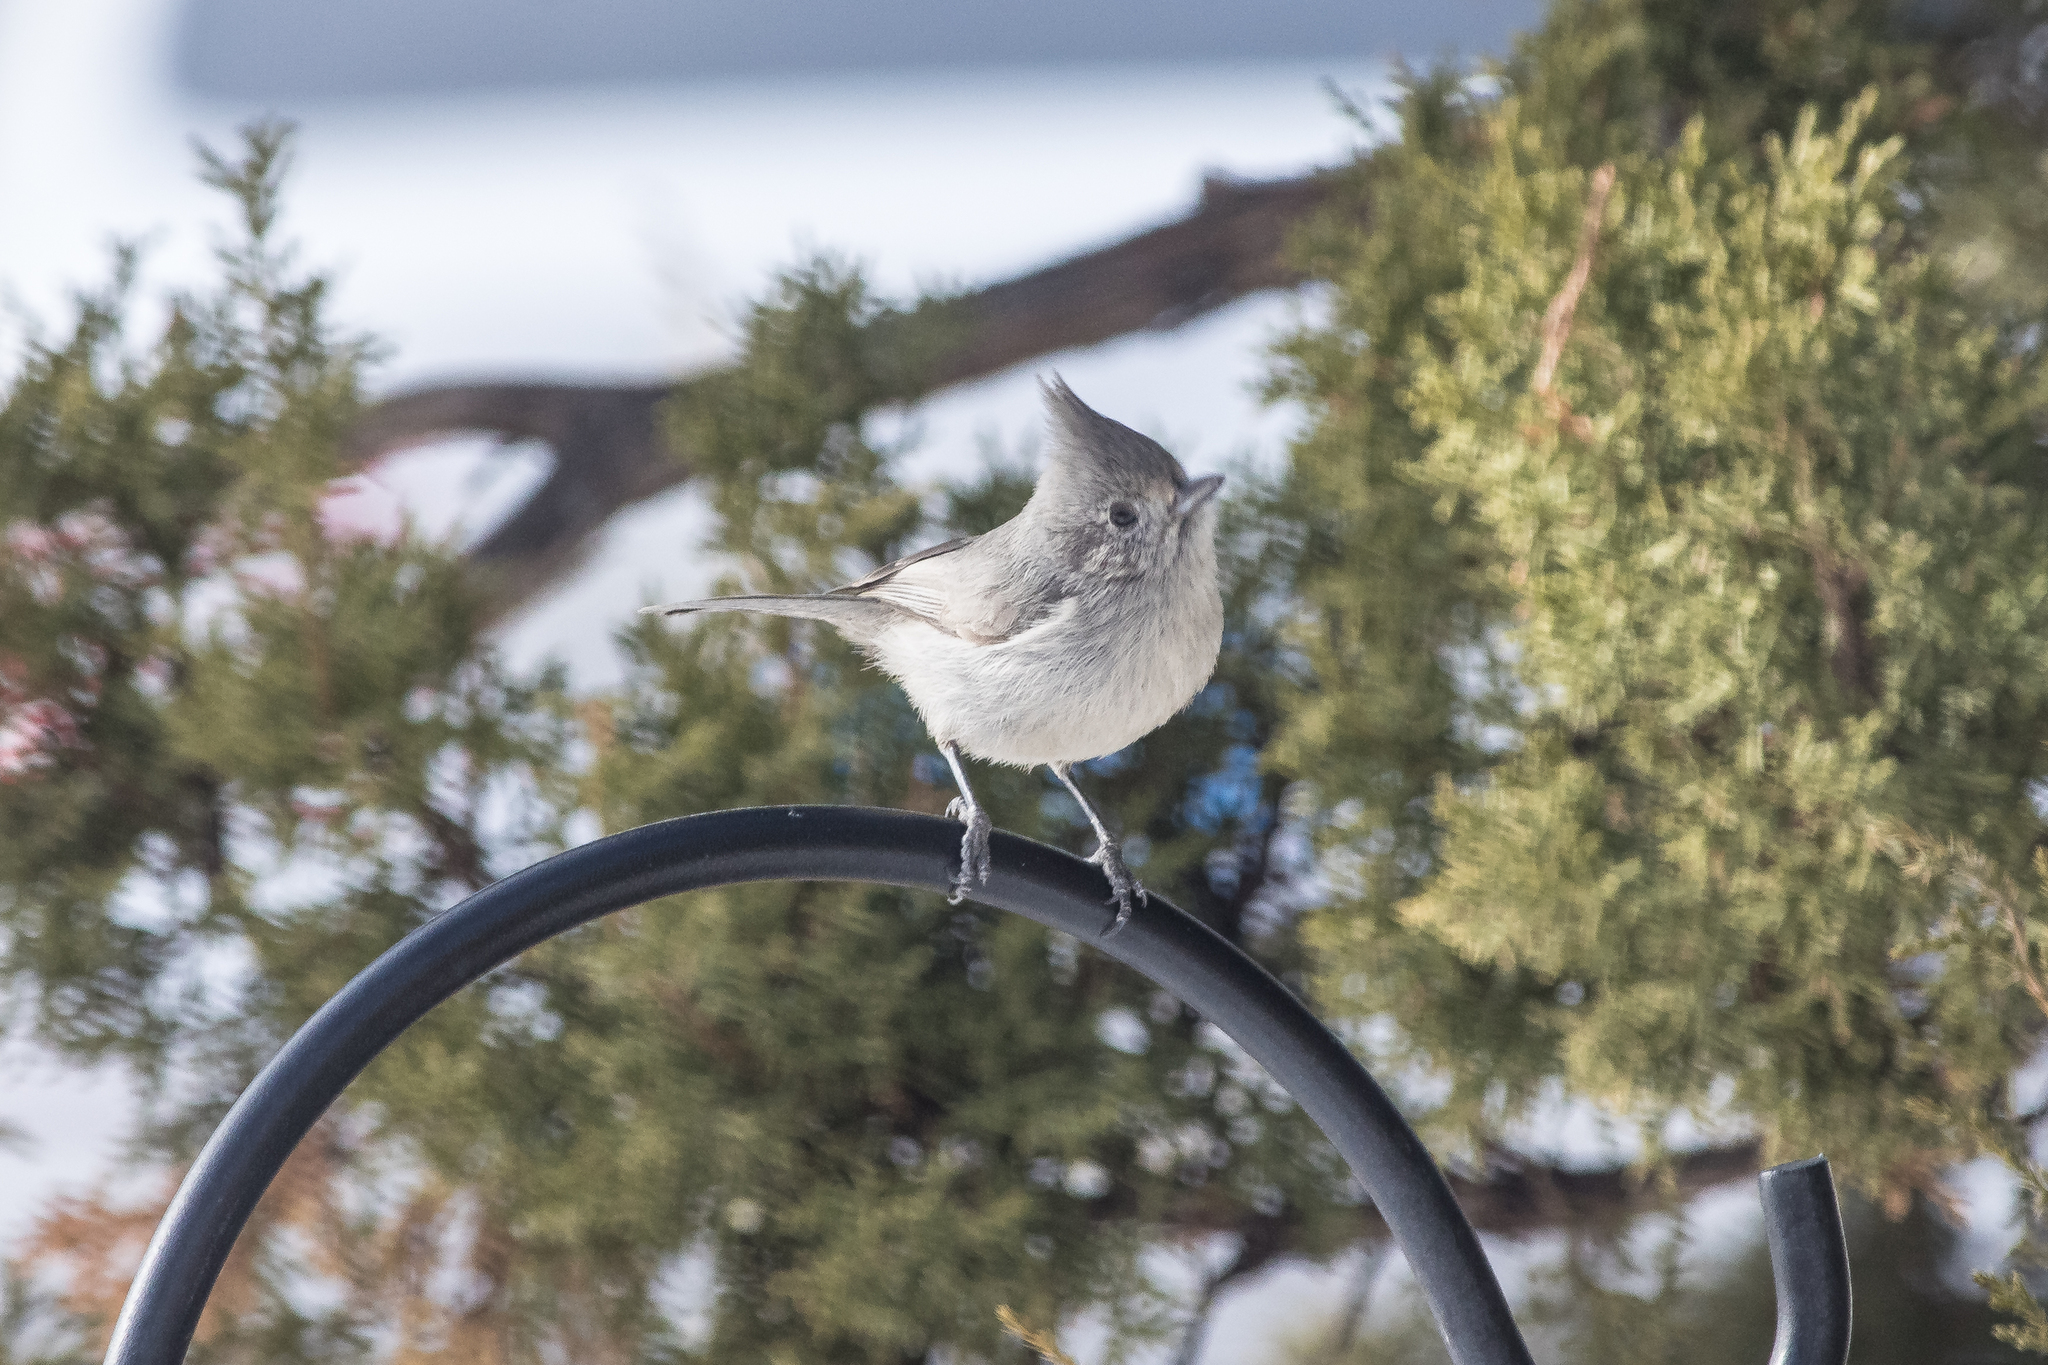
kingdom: Animalia
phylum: Chordata
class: Aves
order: Passeriformes
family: Paridae
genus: Baeolophus
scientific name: Baeolophus ridgwayi
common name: Juniper titmouse
